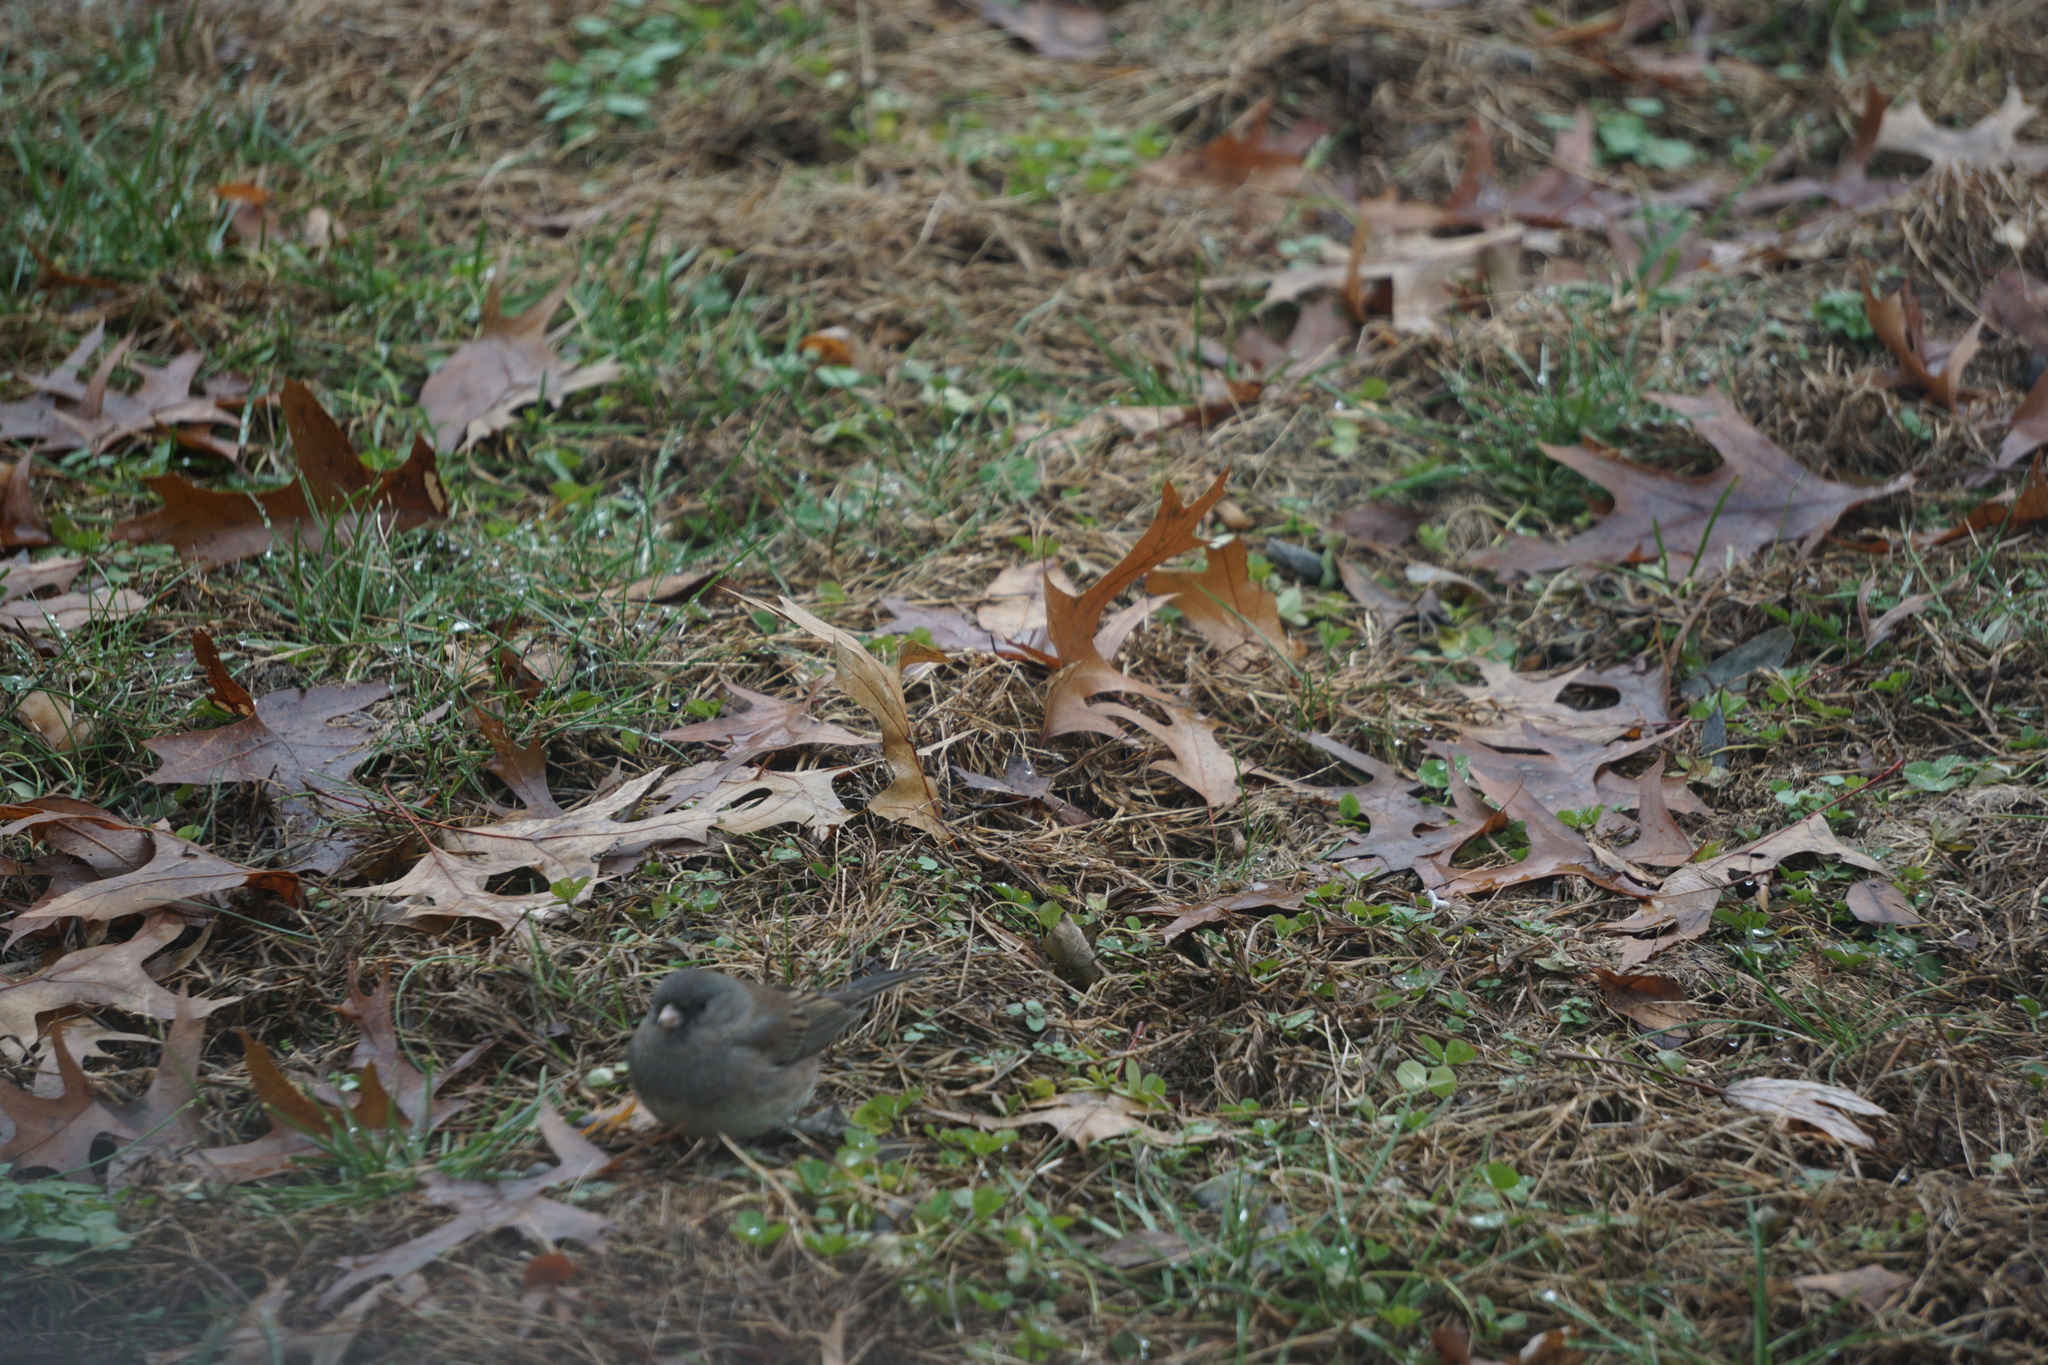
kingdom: Animalia
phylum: Chordata
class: Aves
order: Passeriformes
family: Passerellidae
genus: Junco
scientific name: Junco hyemalis
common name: Dark-eyed junco
